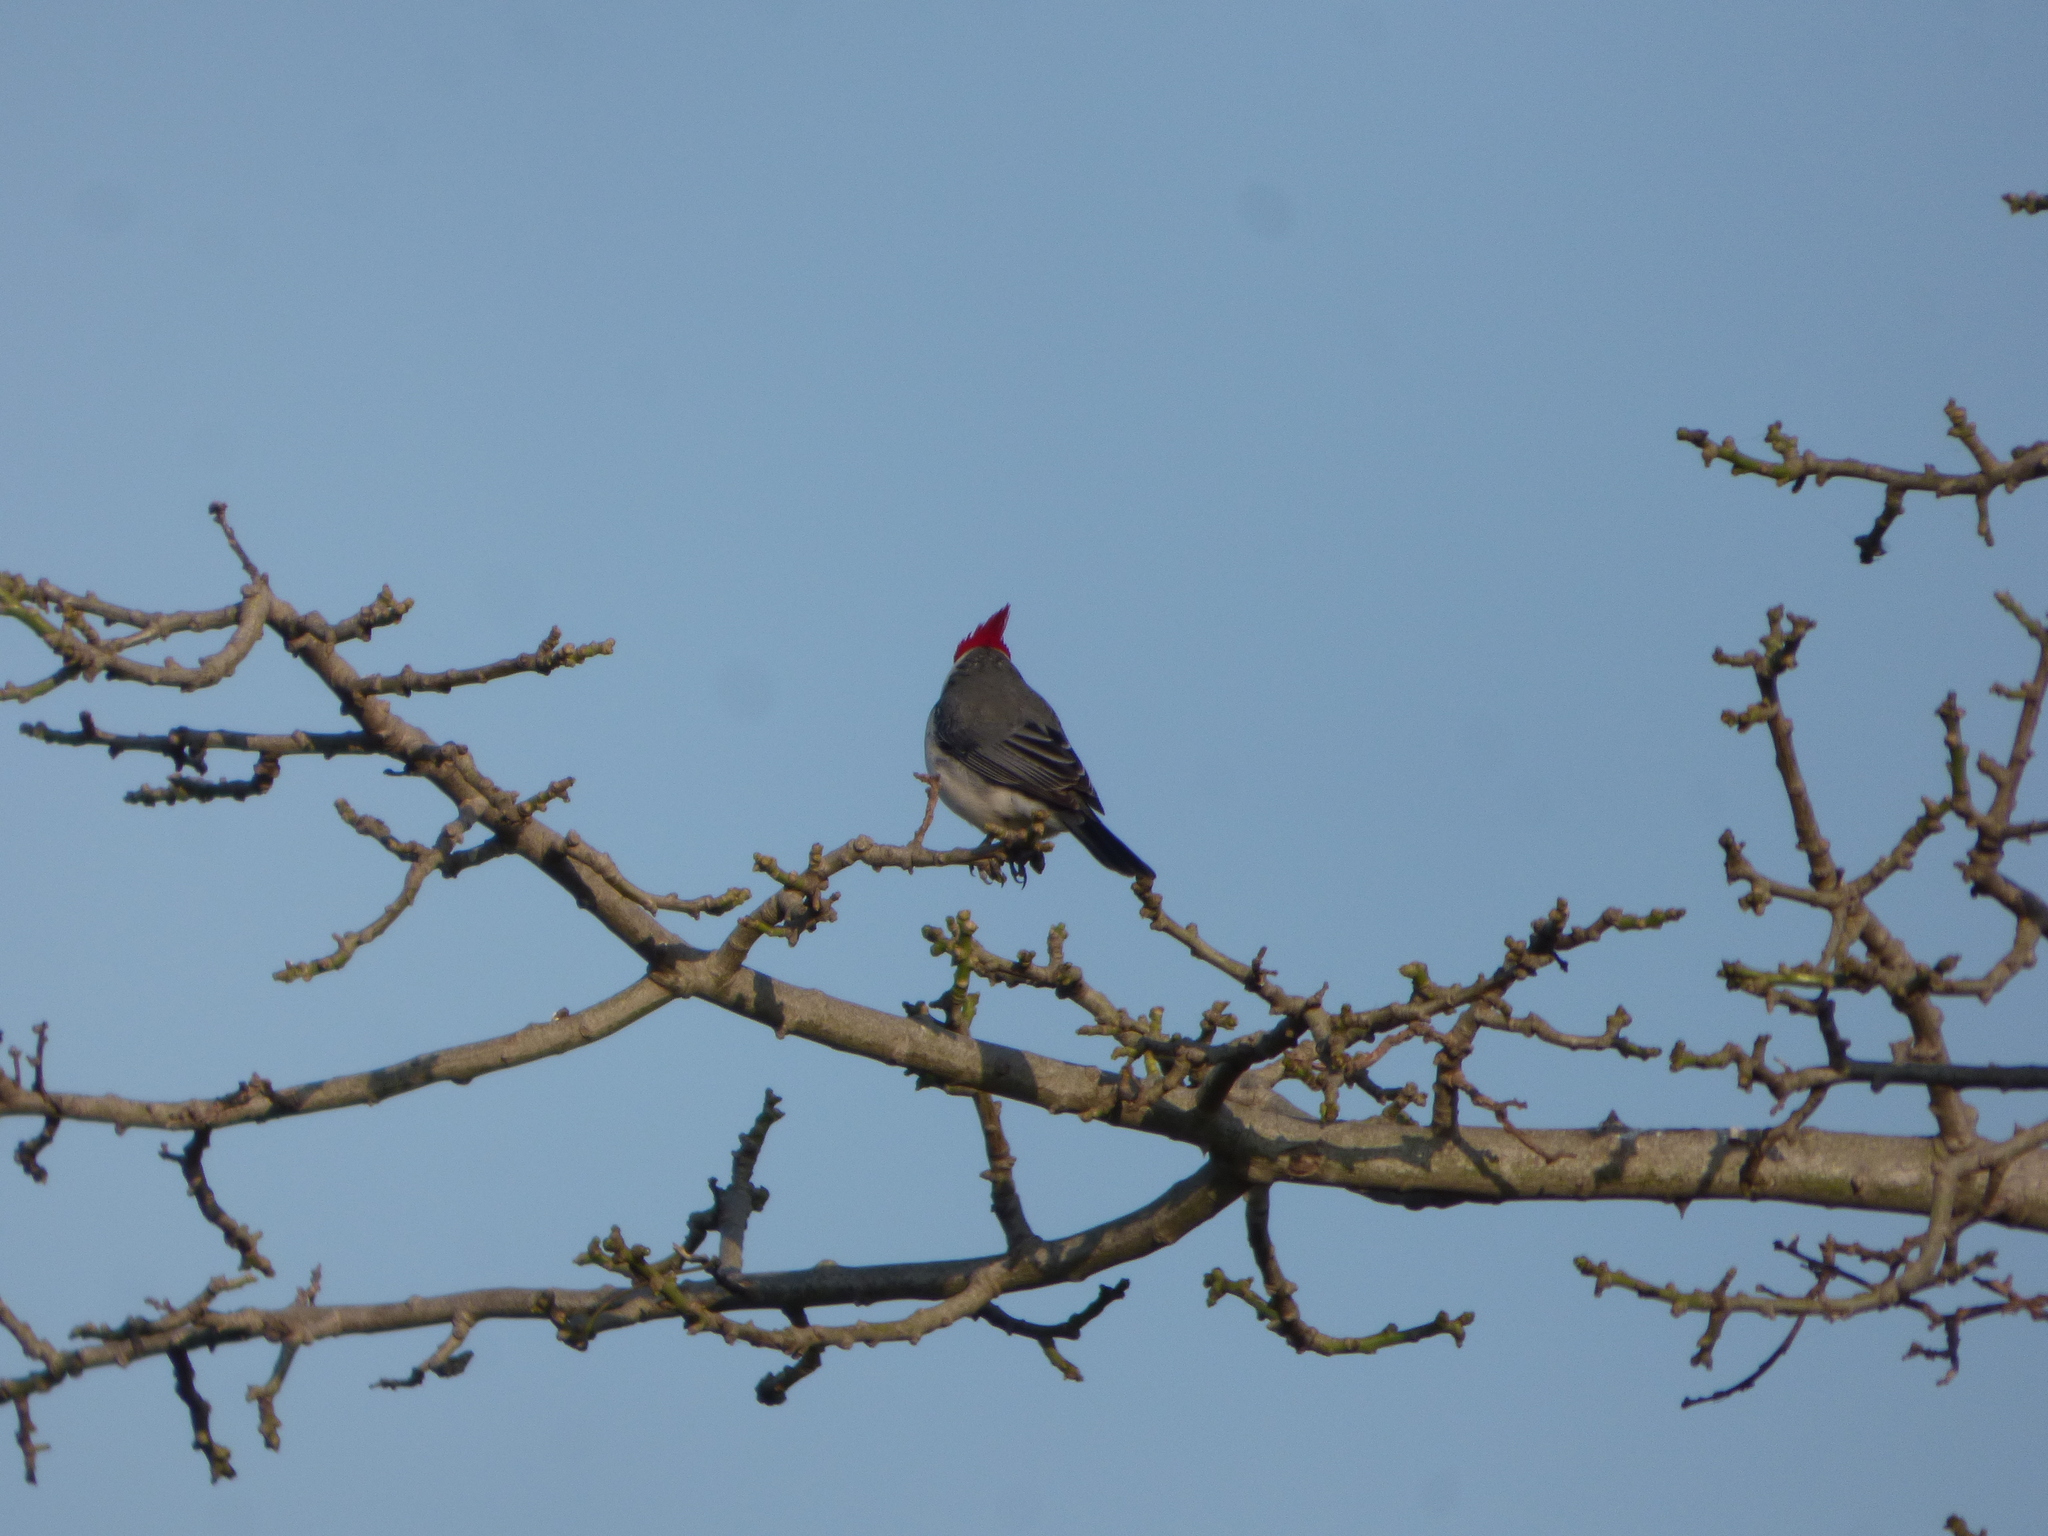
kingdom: Animalia
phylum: Chordata
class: Aves
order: Passeriformes
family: Thraupidae
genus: Paroaria
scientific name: Paroaria coronata
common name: Red-crested cardinal
